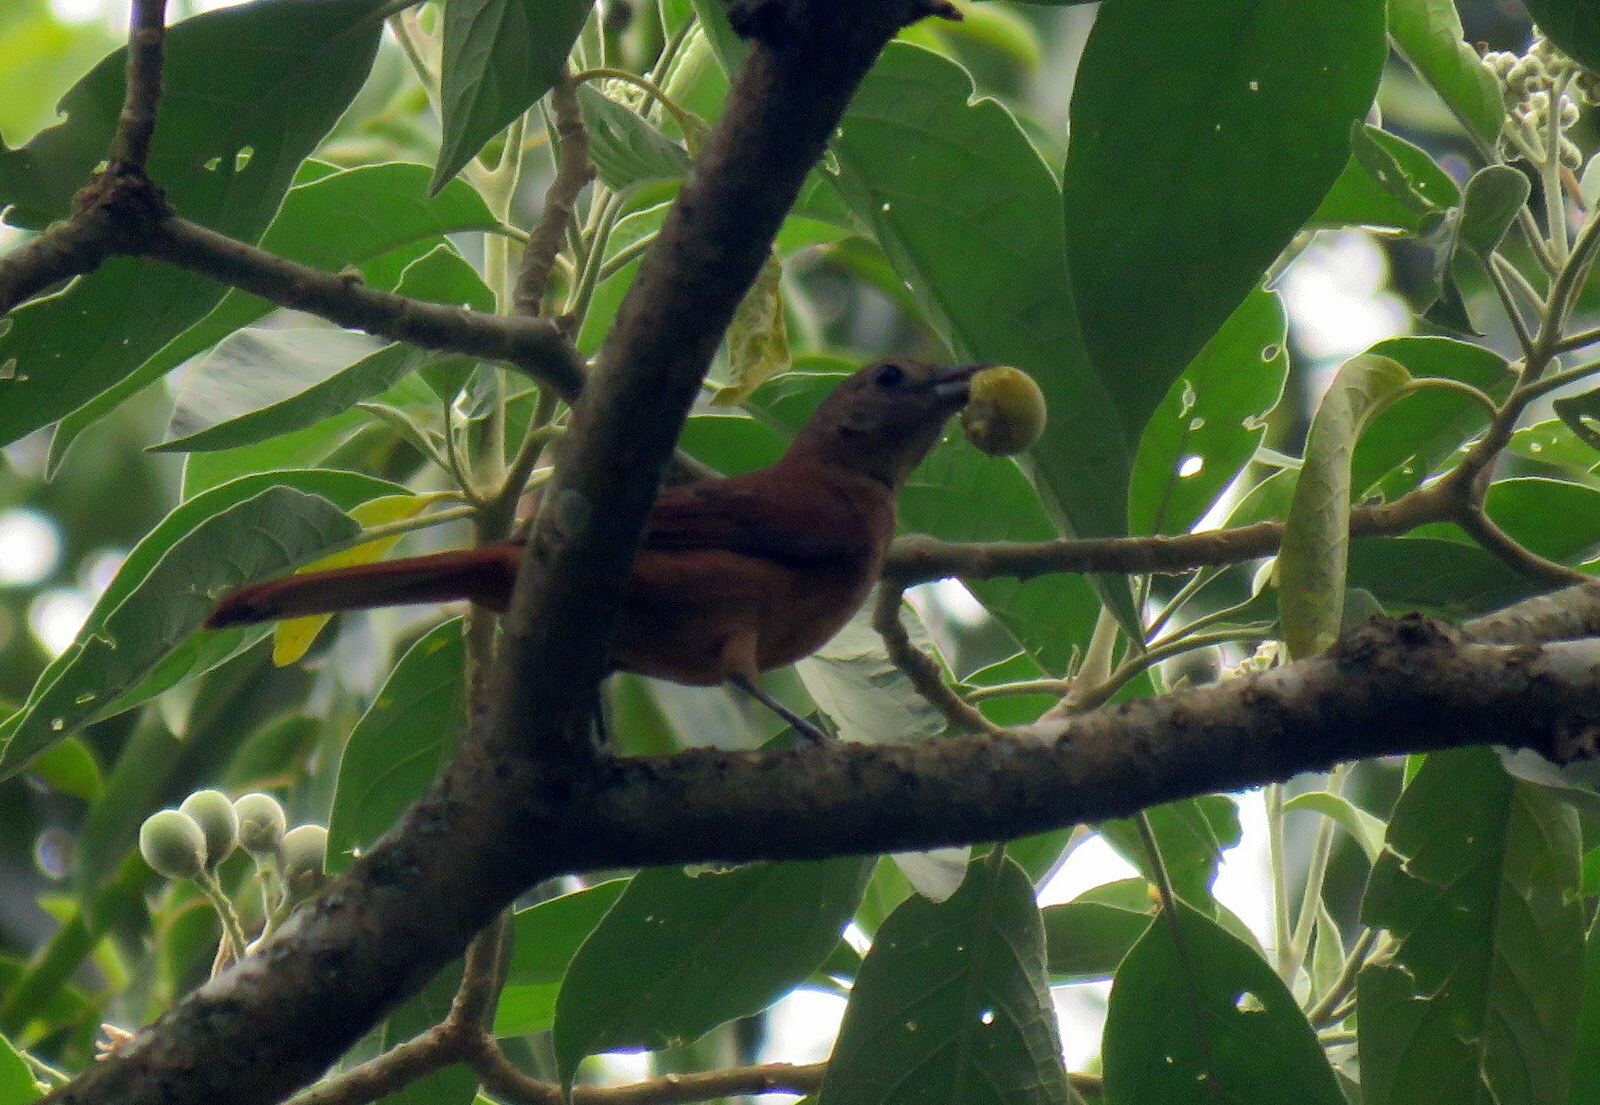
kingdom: Animalia
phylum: Chordata
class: Aves
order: Passeriformes
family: Thraupidae
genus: Tachyphonus
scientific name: Tachyphonus coronatus
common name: Ruby-crowned tanager
